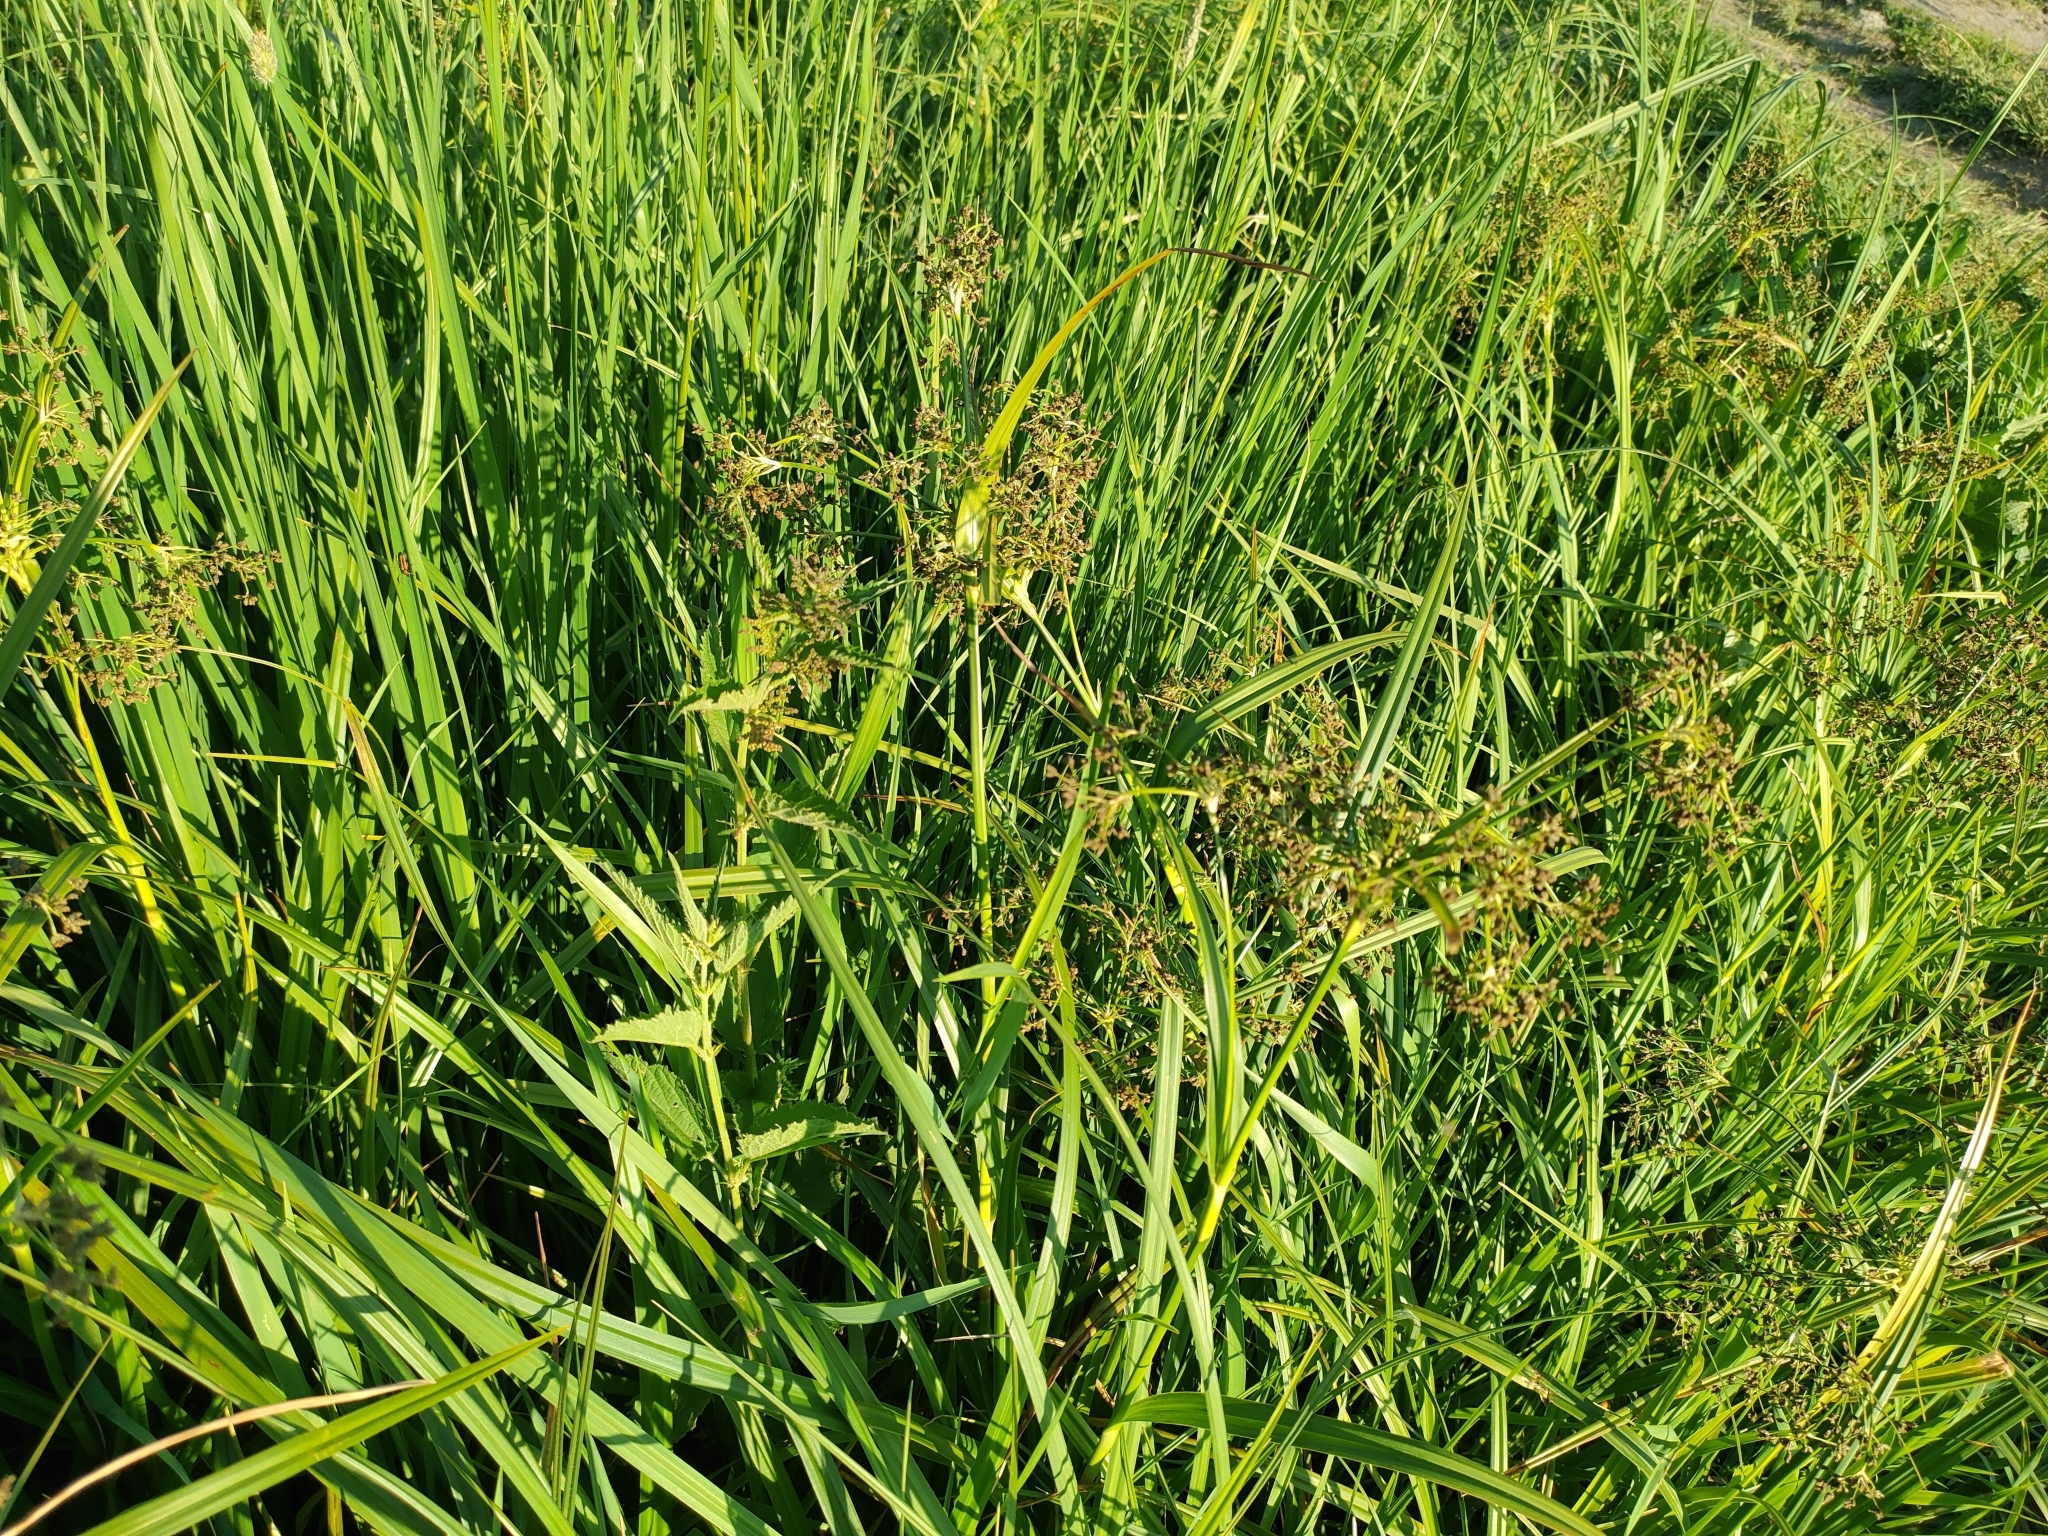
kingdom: Plantae
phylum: Tracheophyta
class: Liliopsida
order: Poales
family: Cyperaceae
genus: Scirpus
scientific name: Scirpus sylvaticus
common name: Wood club-rush
